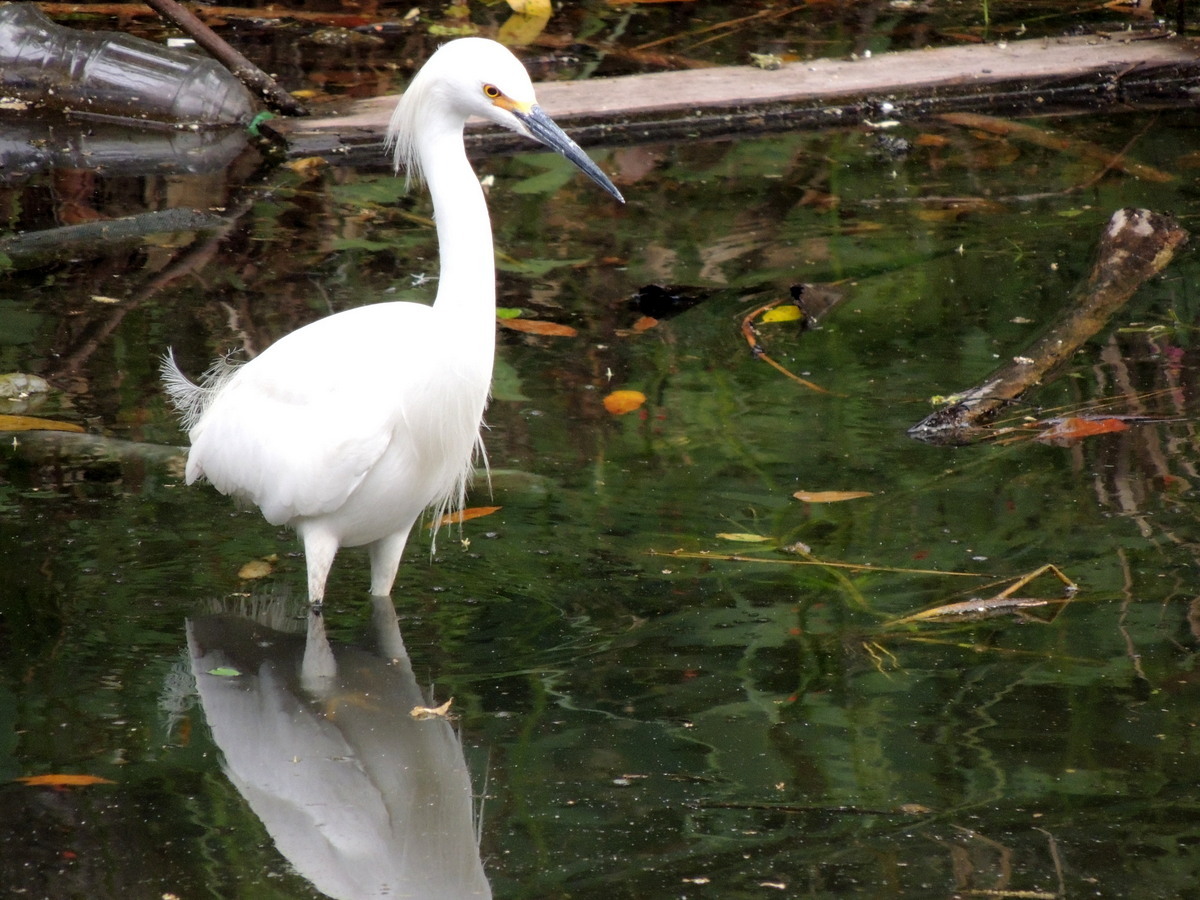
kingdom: Animalia
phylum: Chordata
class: Aves
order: Pelecaniformes
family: Ardeidae
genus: Egretta
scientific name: Egretta thula
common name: Snowy egret
